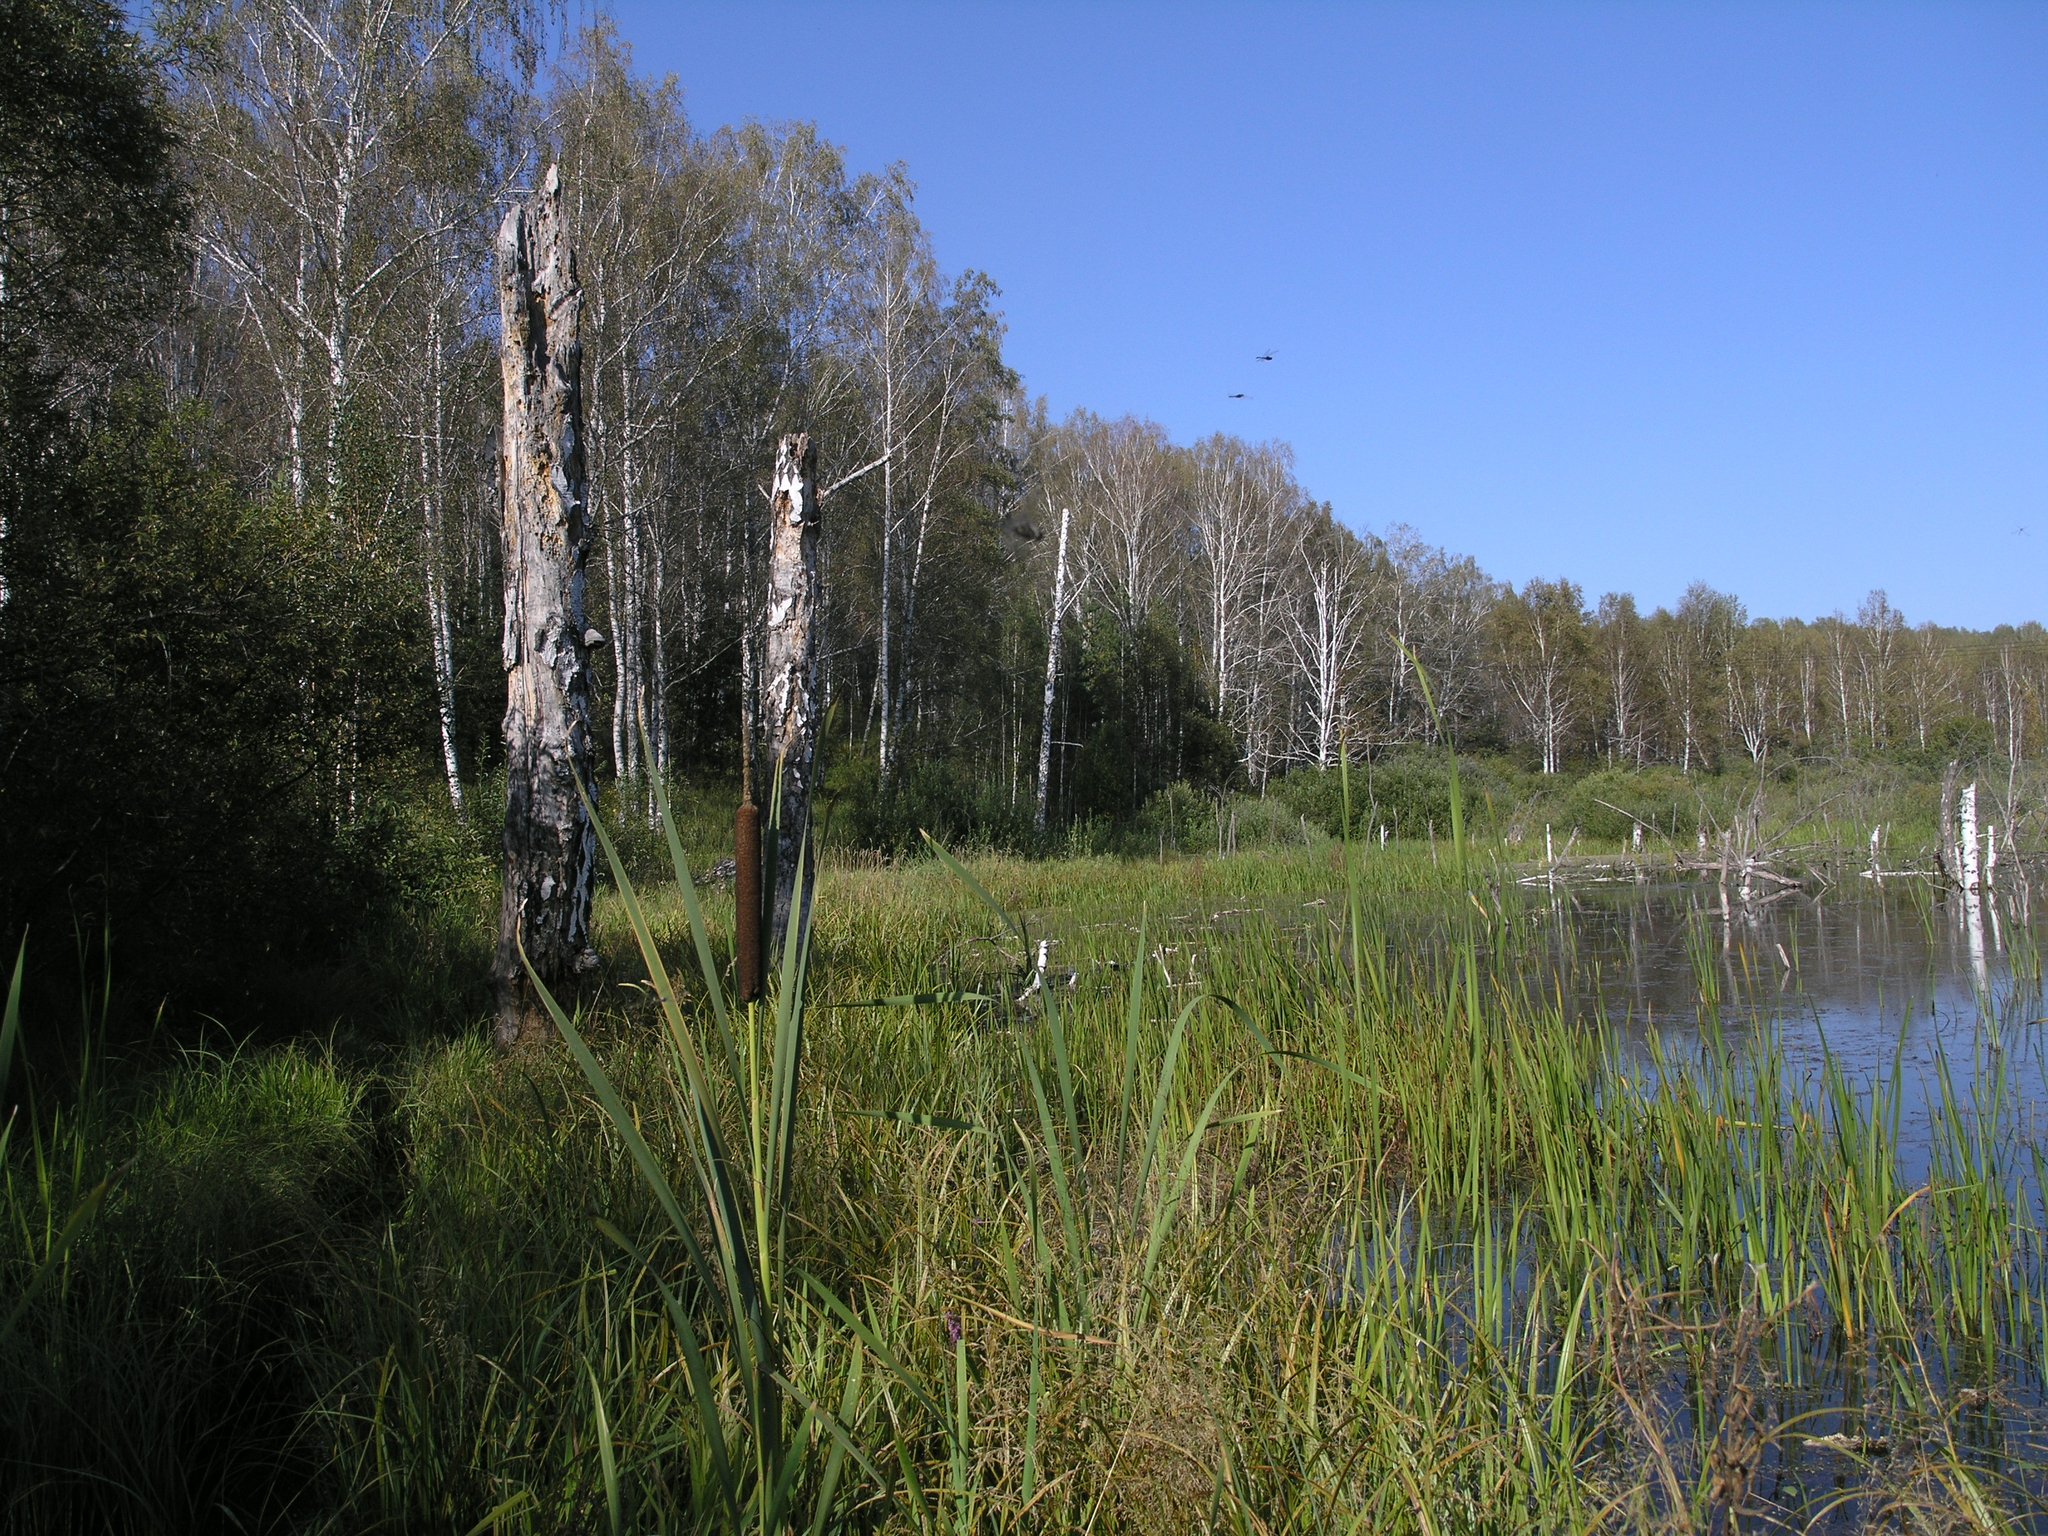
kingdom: Plantae
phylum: Tracheophyta
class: Liliopsida
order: Poales
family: Typhaceae
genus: Typha
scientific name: Typha latifolia
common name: Broadleaf cattail
